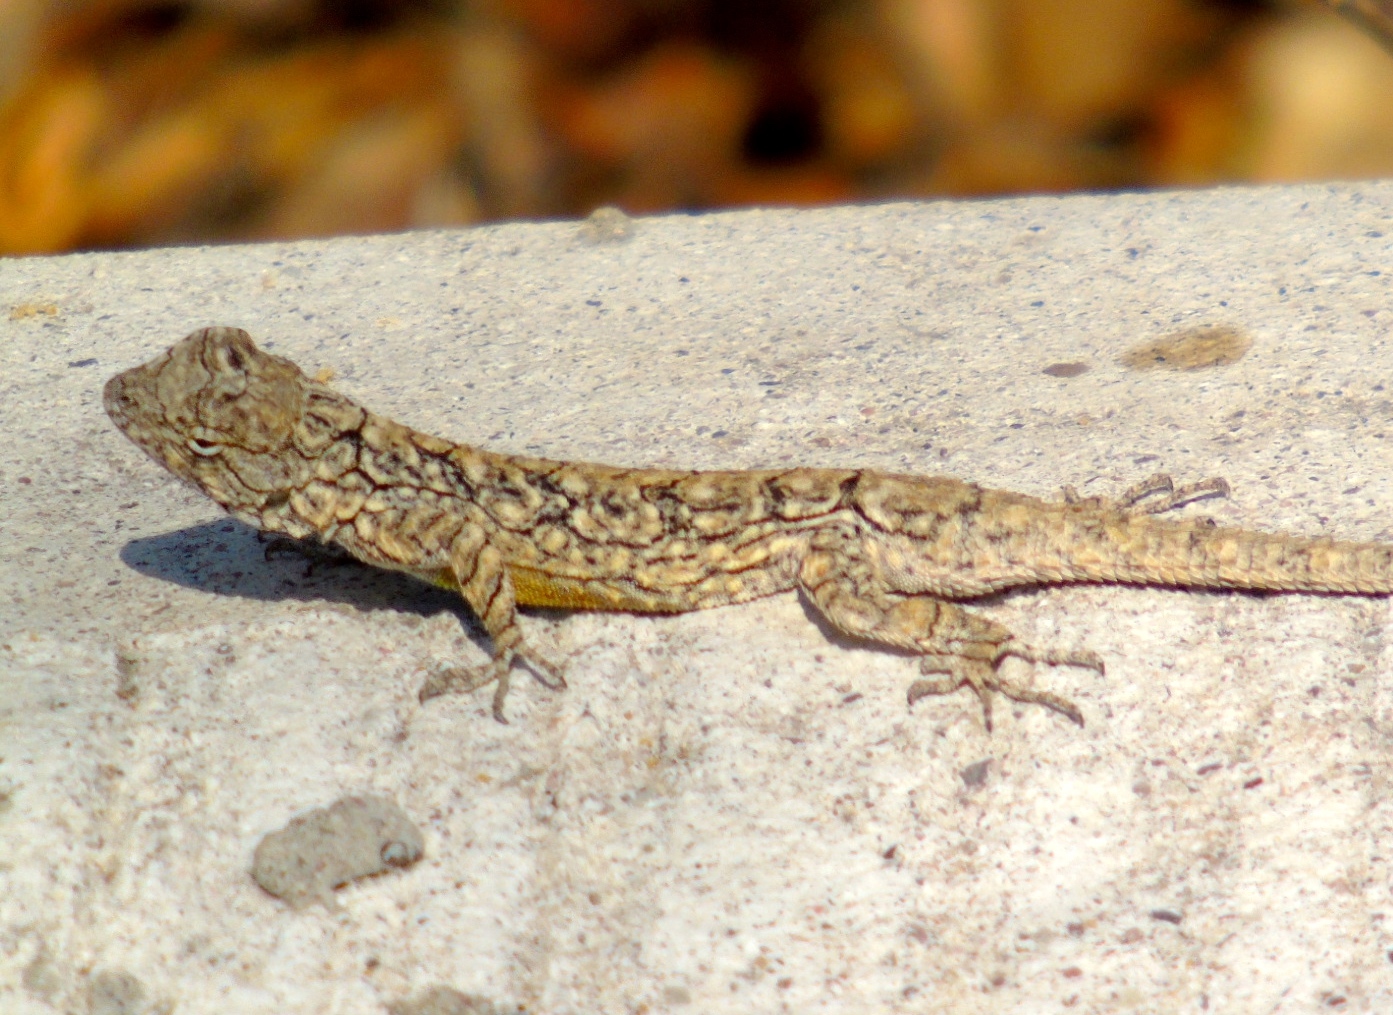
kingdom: Animalia
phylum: Chordata
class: Squamata
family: Phrynosomatidae
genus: Urosaurus
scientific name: Urosaurus bicarinatus
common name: Tropical tree lizard
